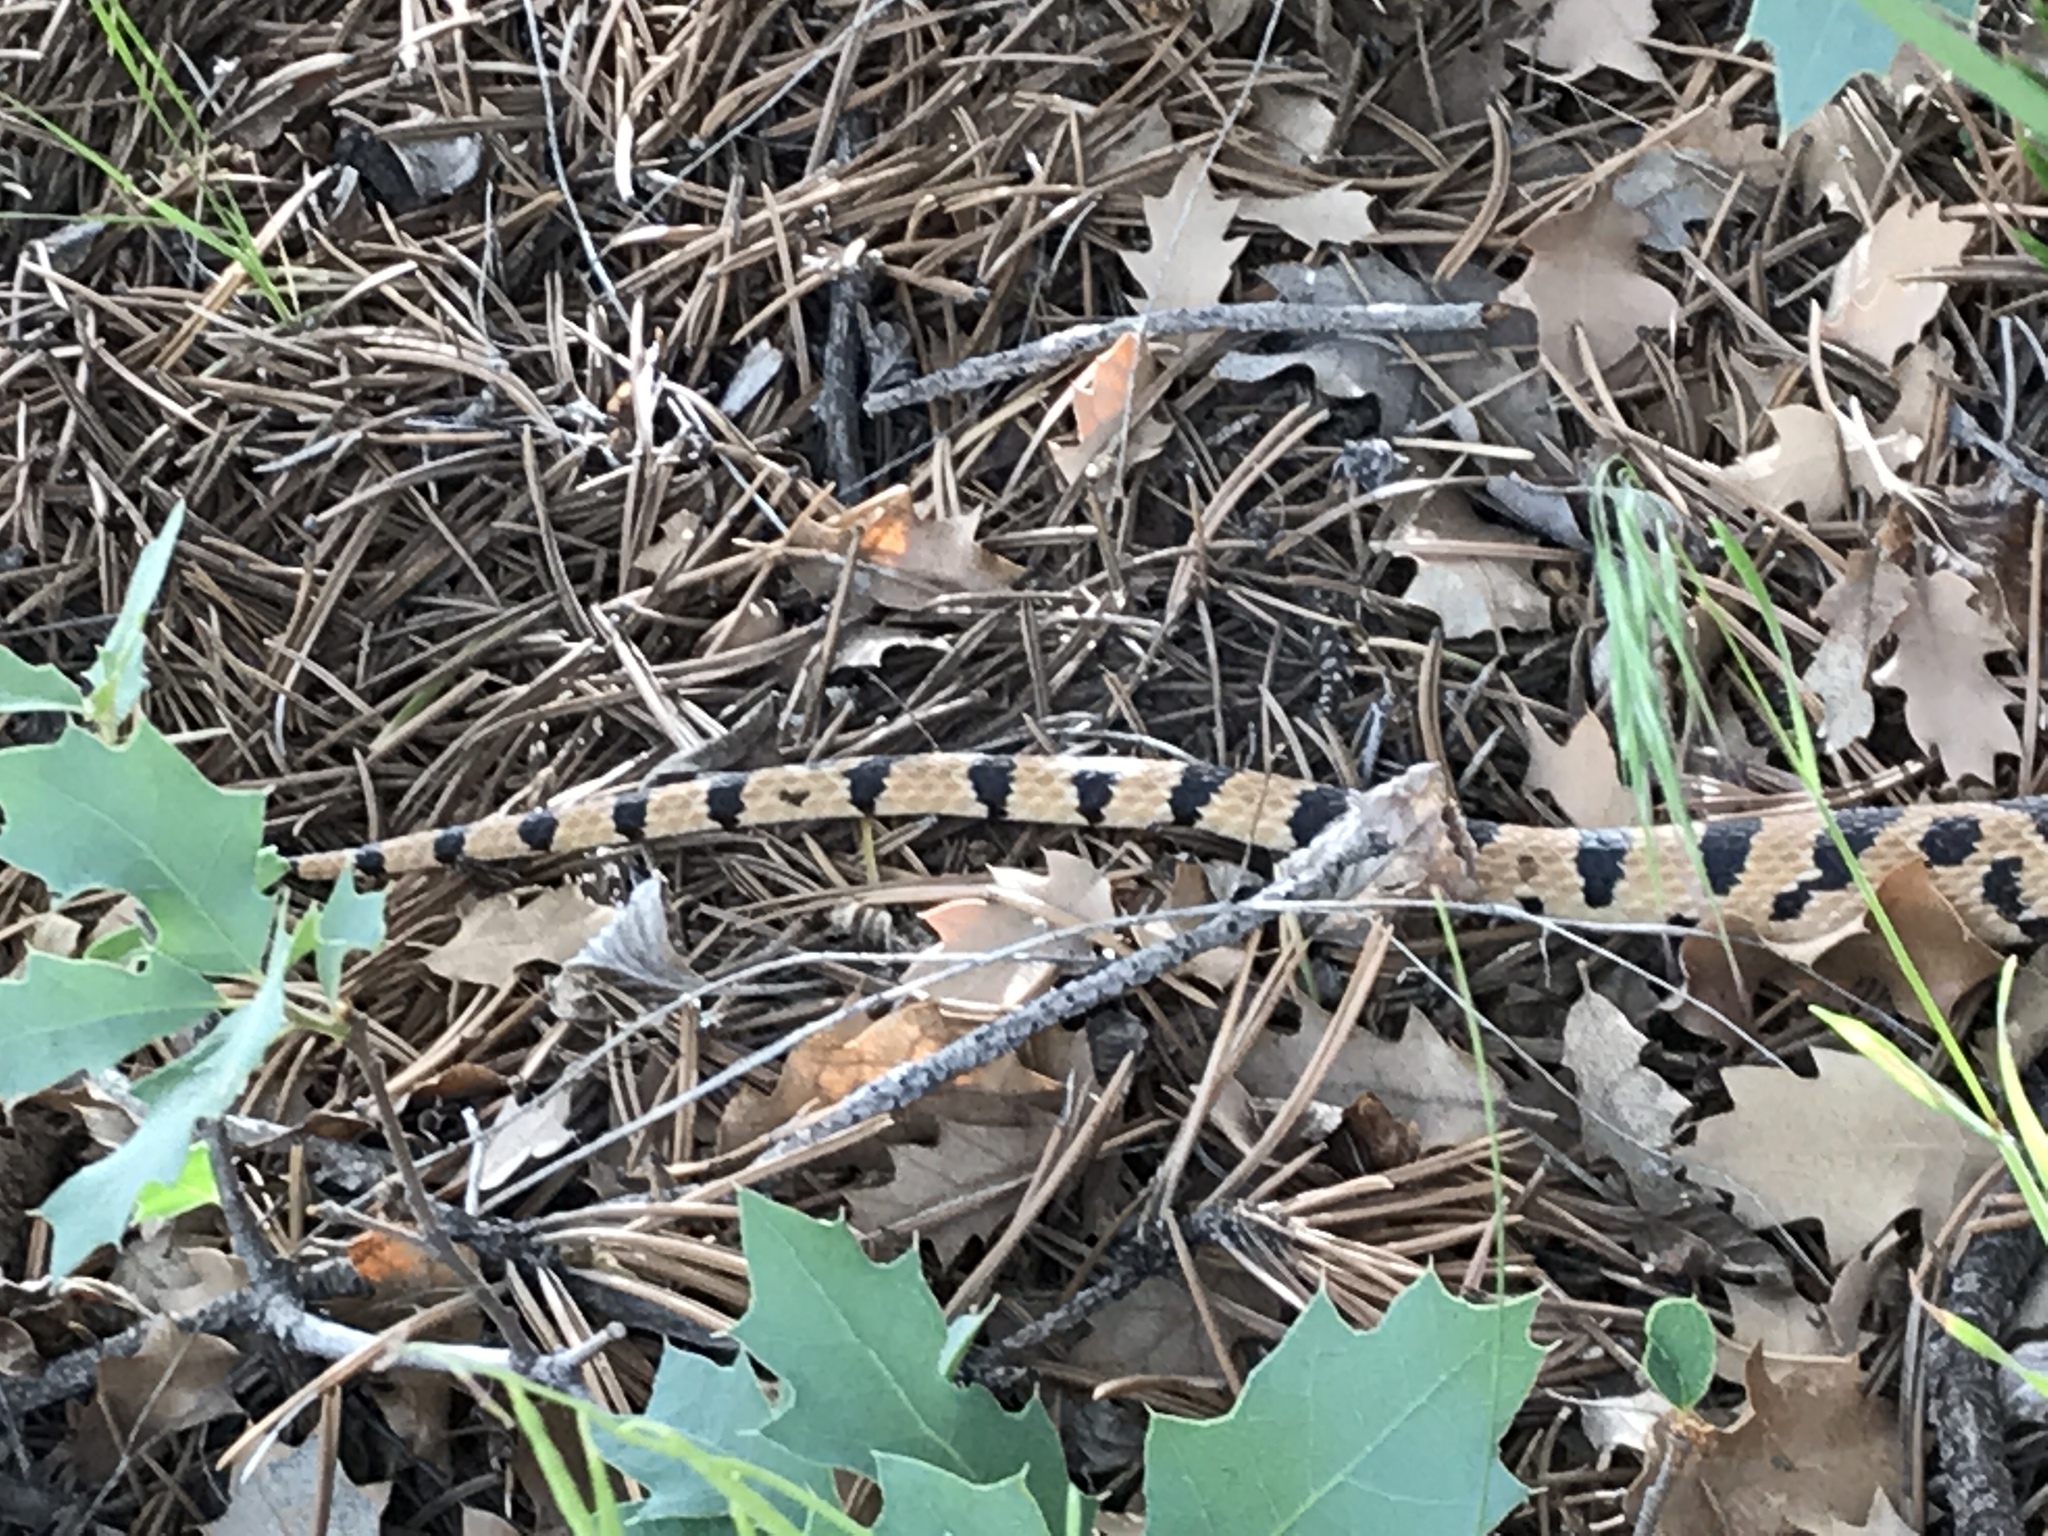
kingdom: Animalia
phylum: Chordata
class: Squamata
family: Colubridae
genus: Pituophis
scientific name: Pituophis catenifer
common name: Gopher snake
